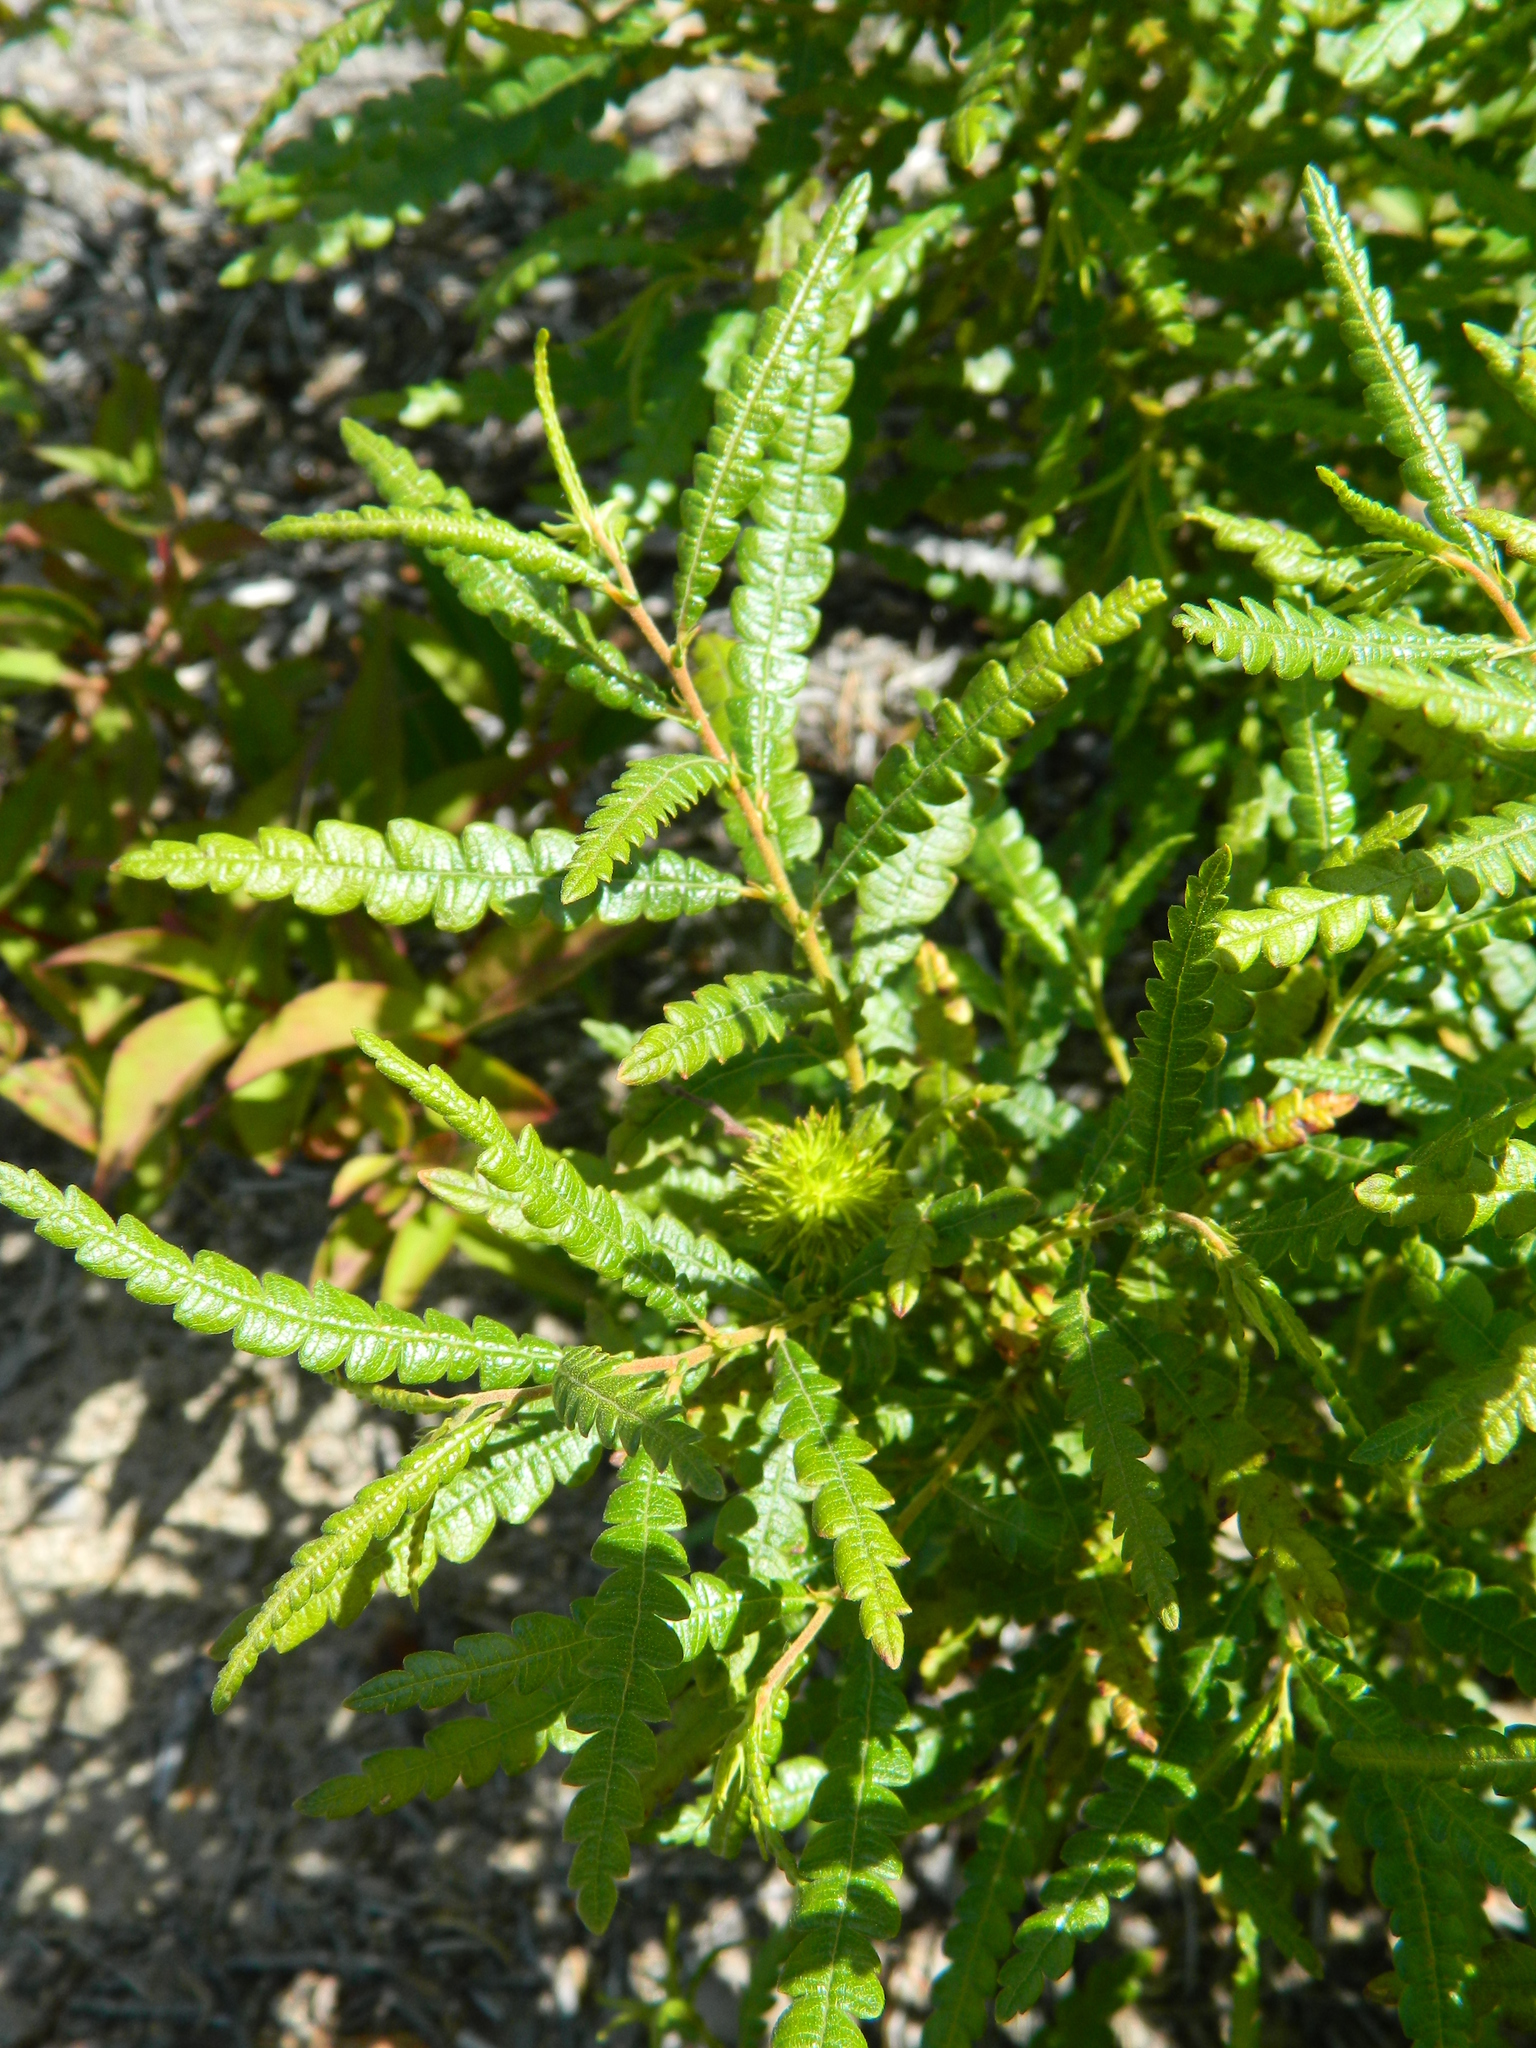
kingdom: Plantae
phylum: Tracheophyta
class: Magnoliopsida
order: Fagales
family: Myricaceae
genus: Comptonia
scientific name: Comptonia peregrina
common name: Sweet-fern
